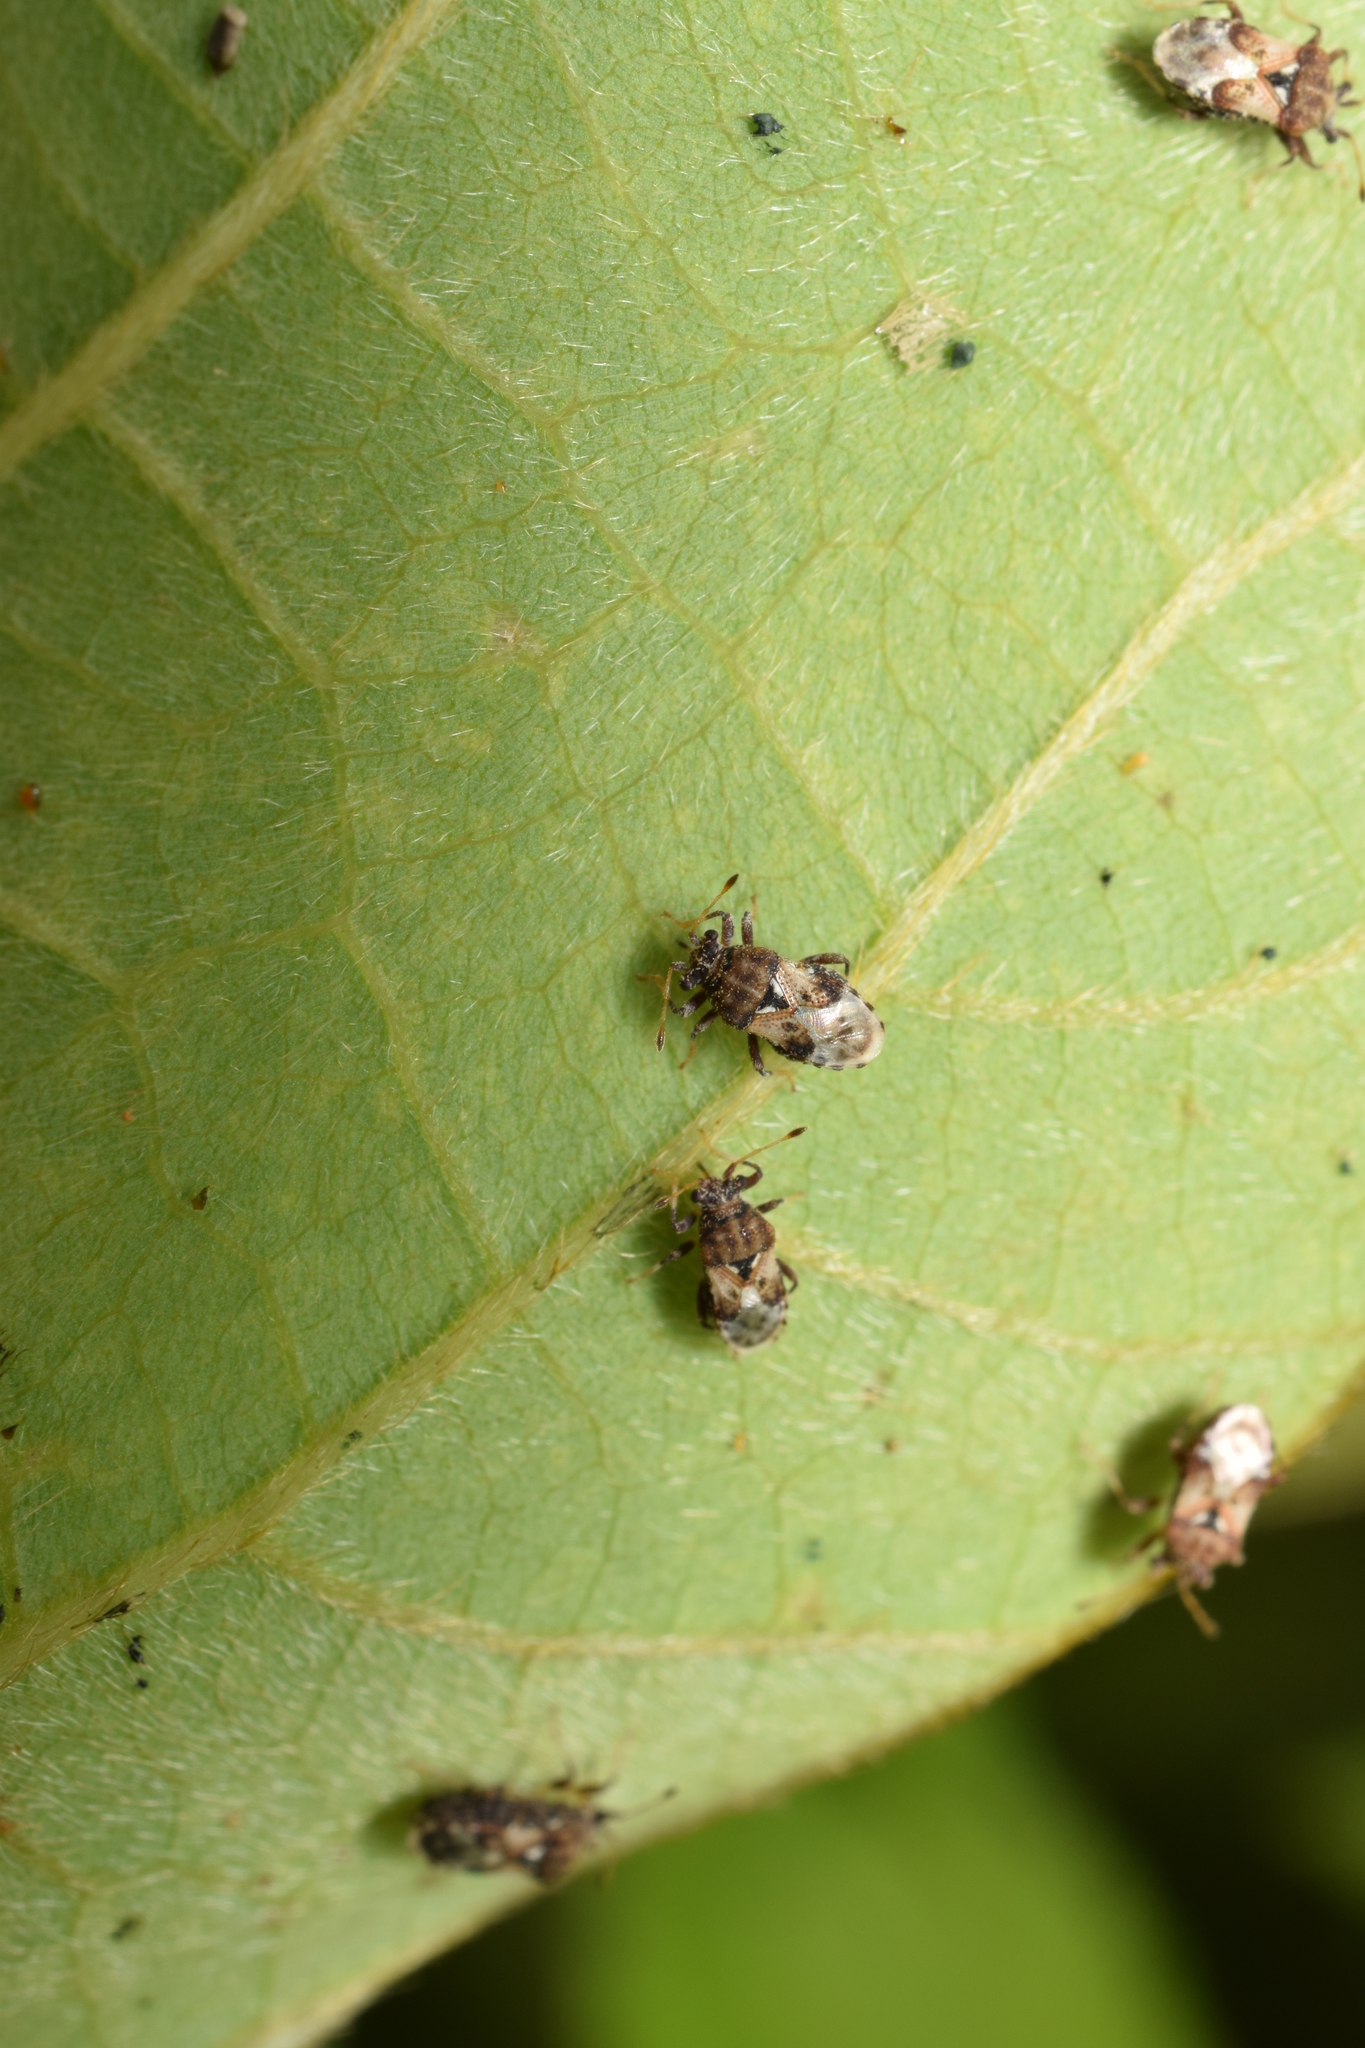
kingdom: Animalia
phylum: Arthropoda
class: Insecta
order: Hemiptera
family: Malcidae
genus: Chauliops
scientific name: Chauliops fallax
